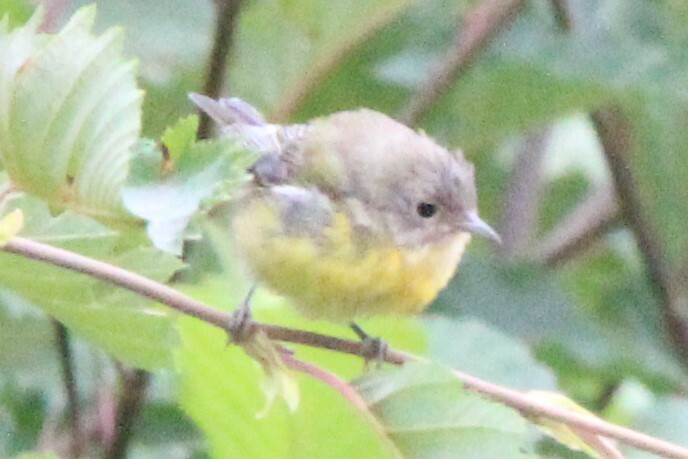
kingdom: Animalia
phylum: Chordata
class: Aves
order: Passeriformes
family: Parulidae
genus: Leiothlypis
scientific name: Leiothlypis ruficapilla
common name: Nashville warbler
